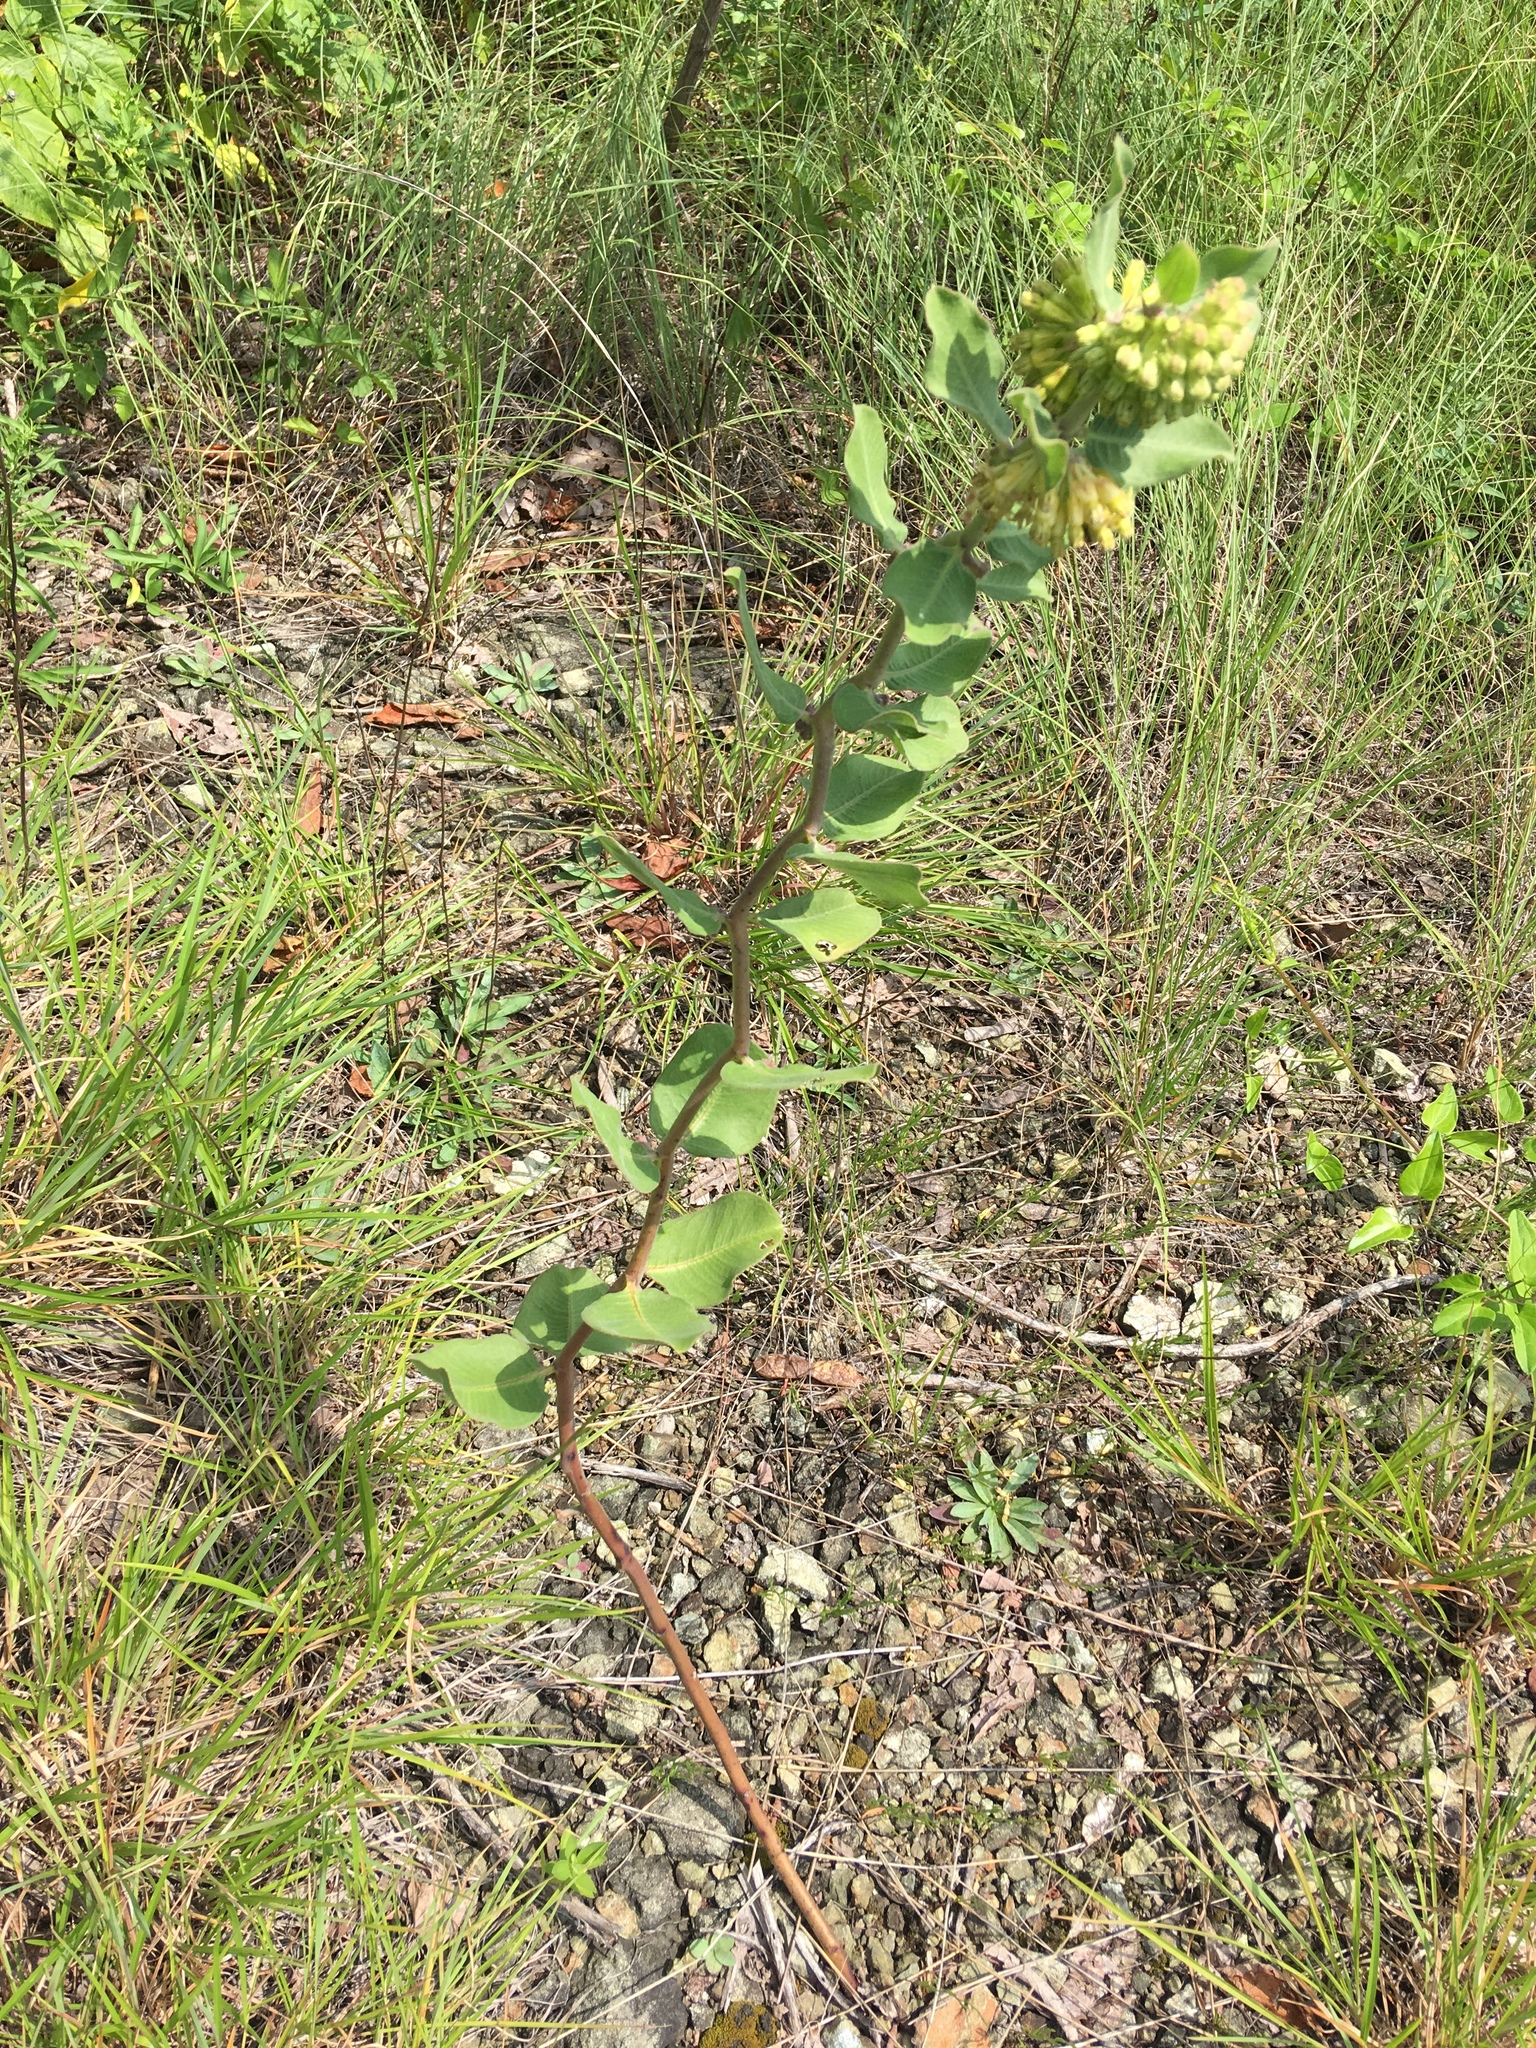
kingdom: Plantae
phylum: Tracheophyta
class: Magnoliopsida
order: Gentianales
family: Apocynaceae
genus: Asclepias
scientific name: Asclepias viridiflora
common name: Green comet milkweed
